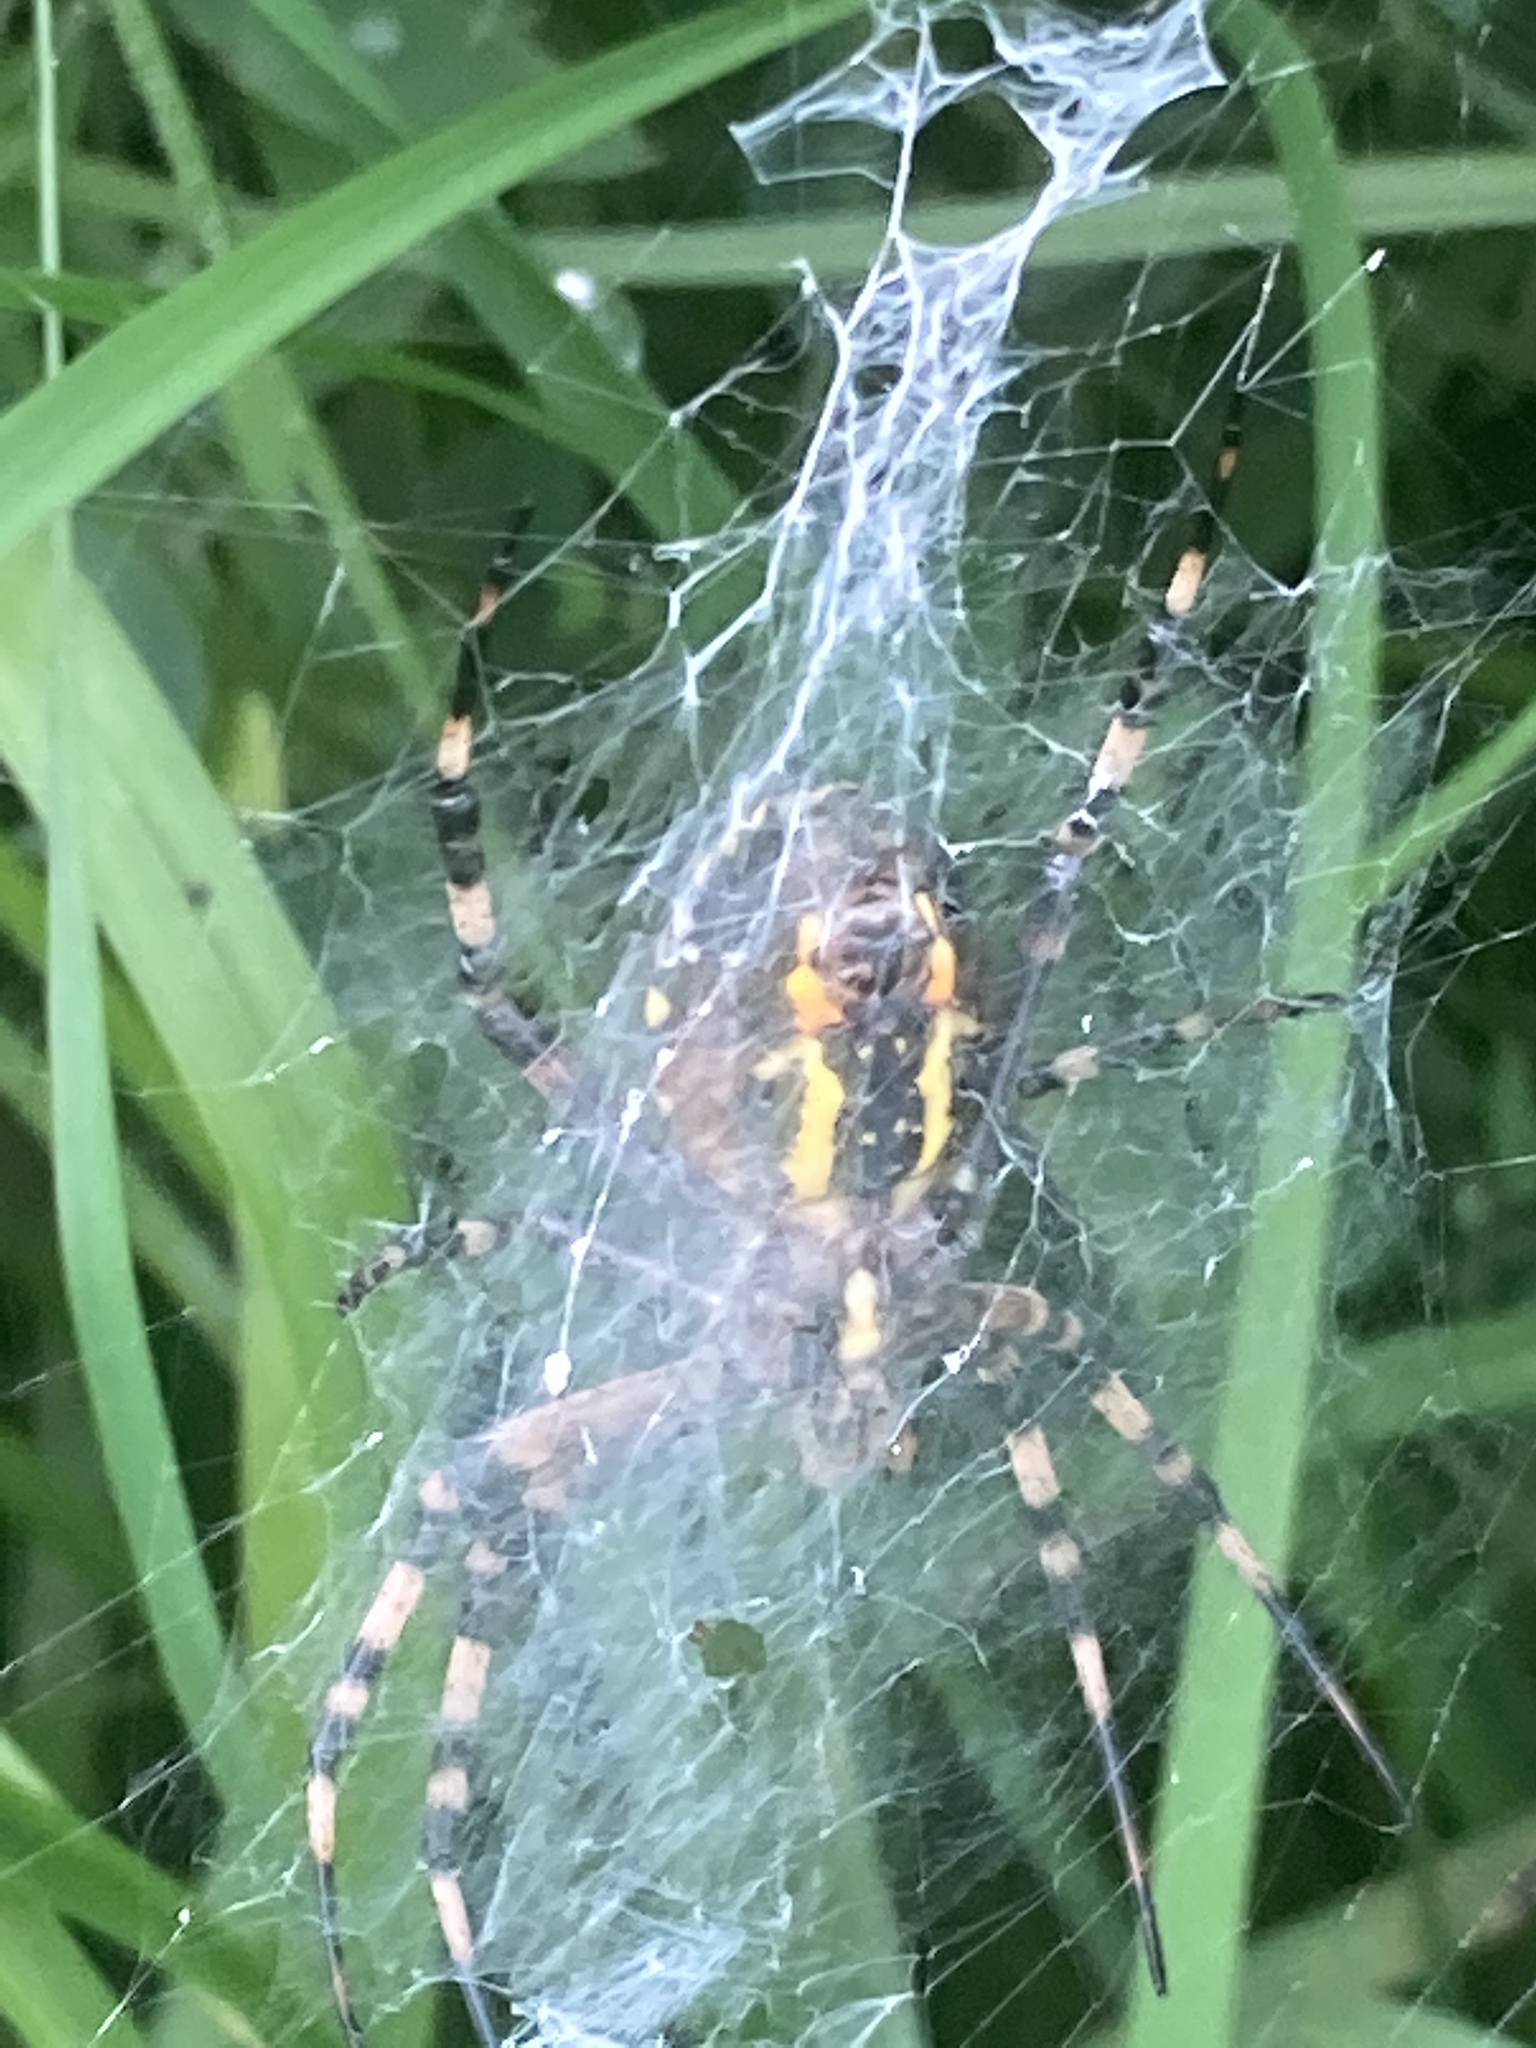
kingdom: Animalia
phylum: Arthropoda
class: Arachnida
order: Araneae
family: Araneidae
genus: Argiope
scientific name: Argiope bruennichi
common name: Wasp spider
